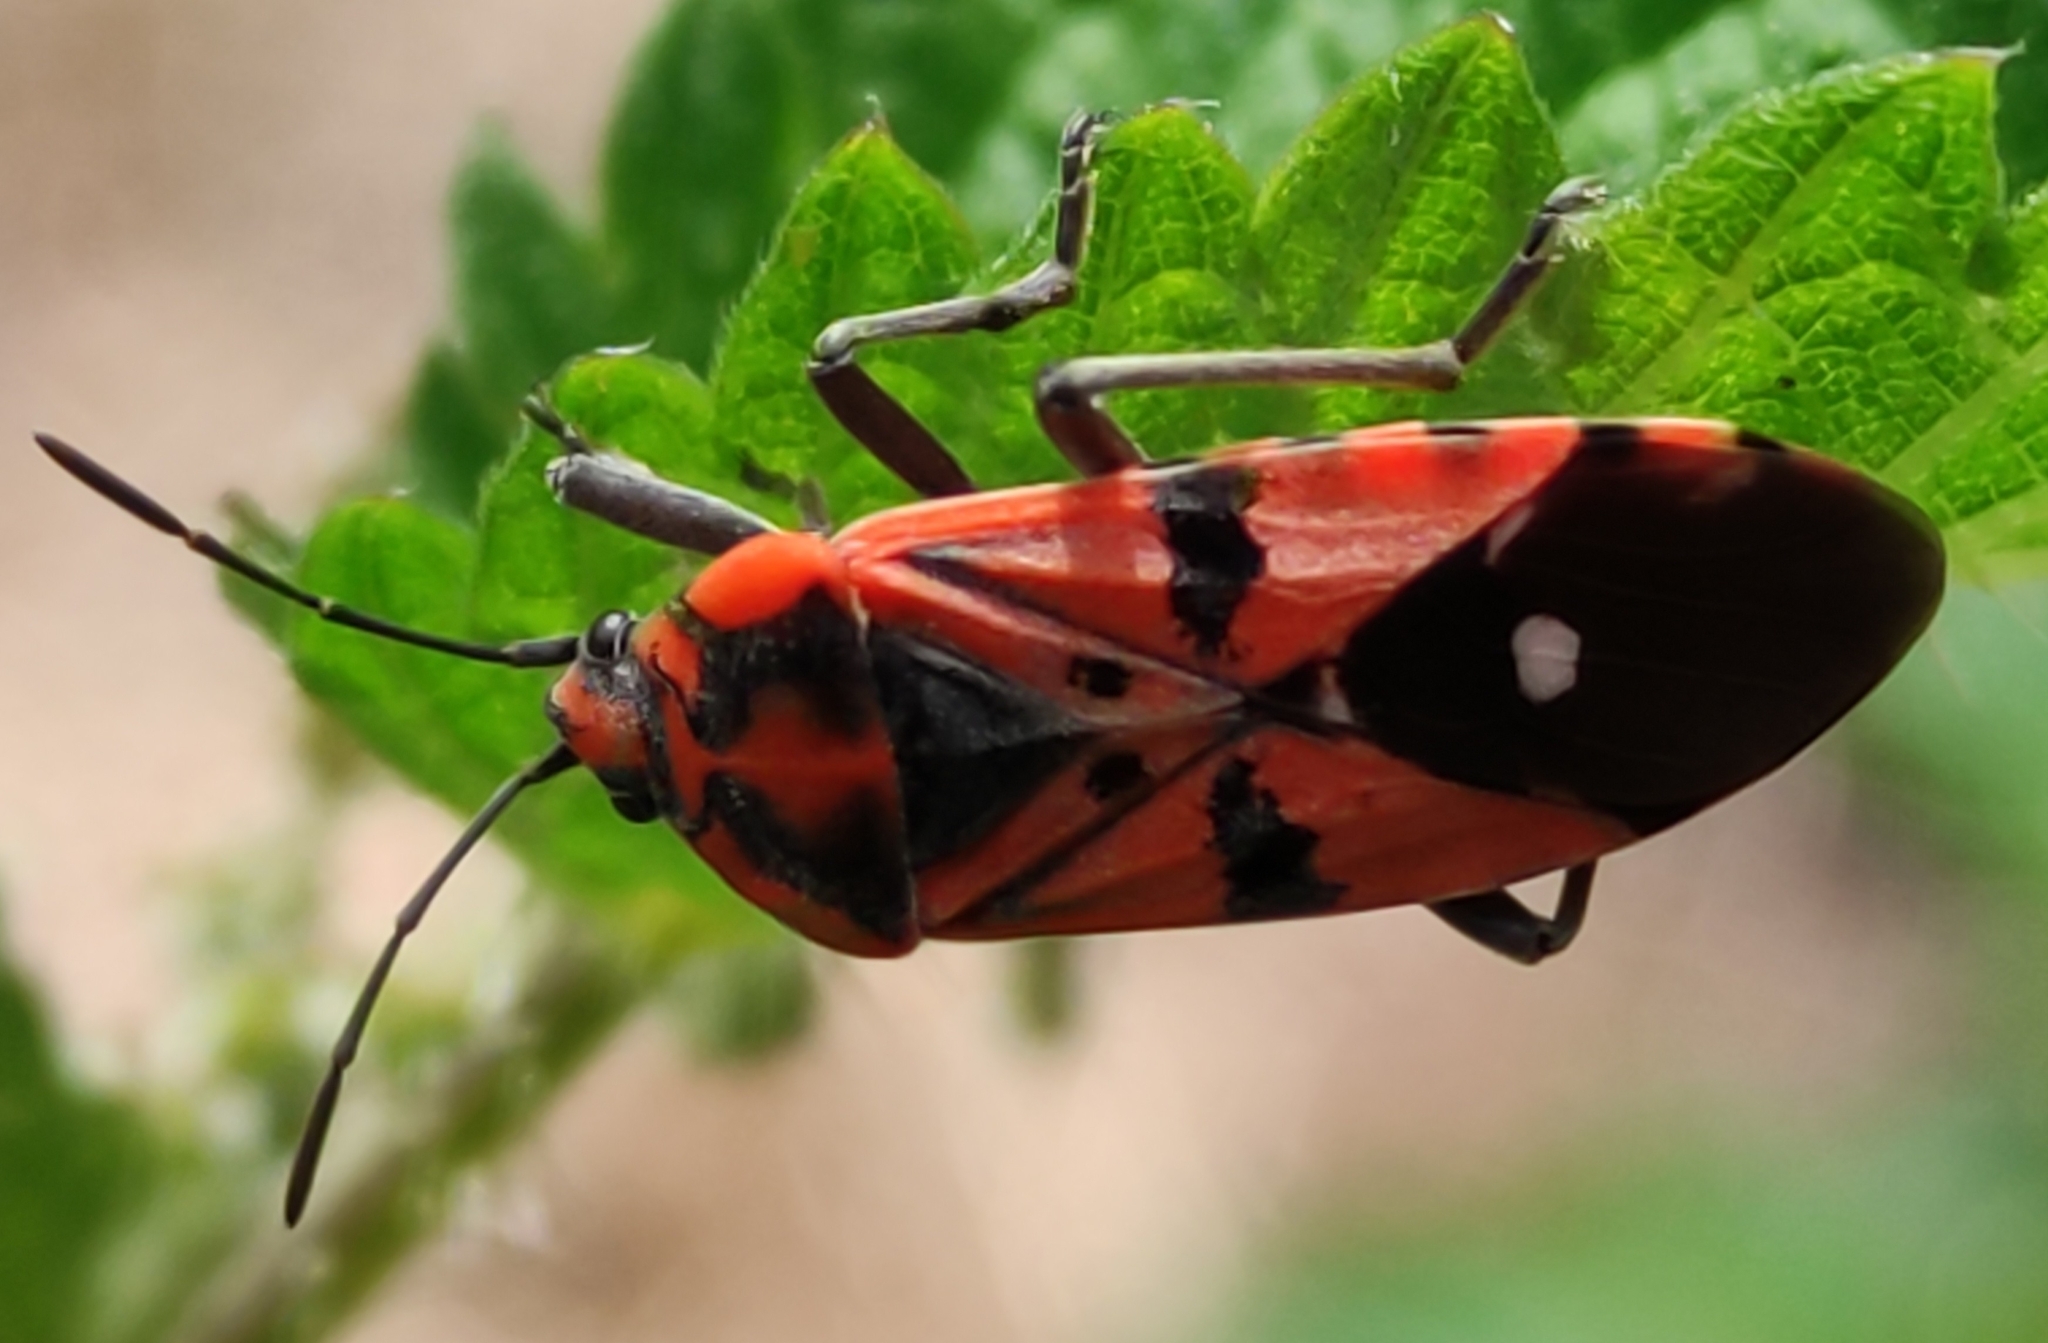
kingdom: Animalia
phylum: Arthropoda
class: Insecta
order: Hemiptera
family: Lygaeidae
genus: Spilostethus
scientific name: Spilostethus pandurus
